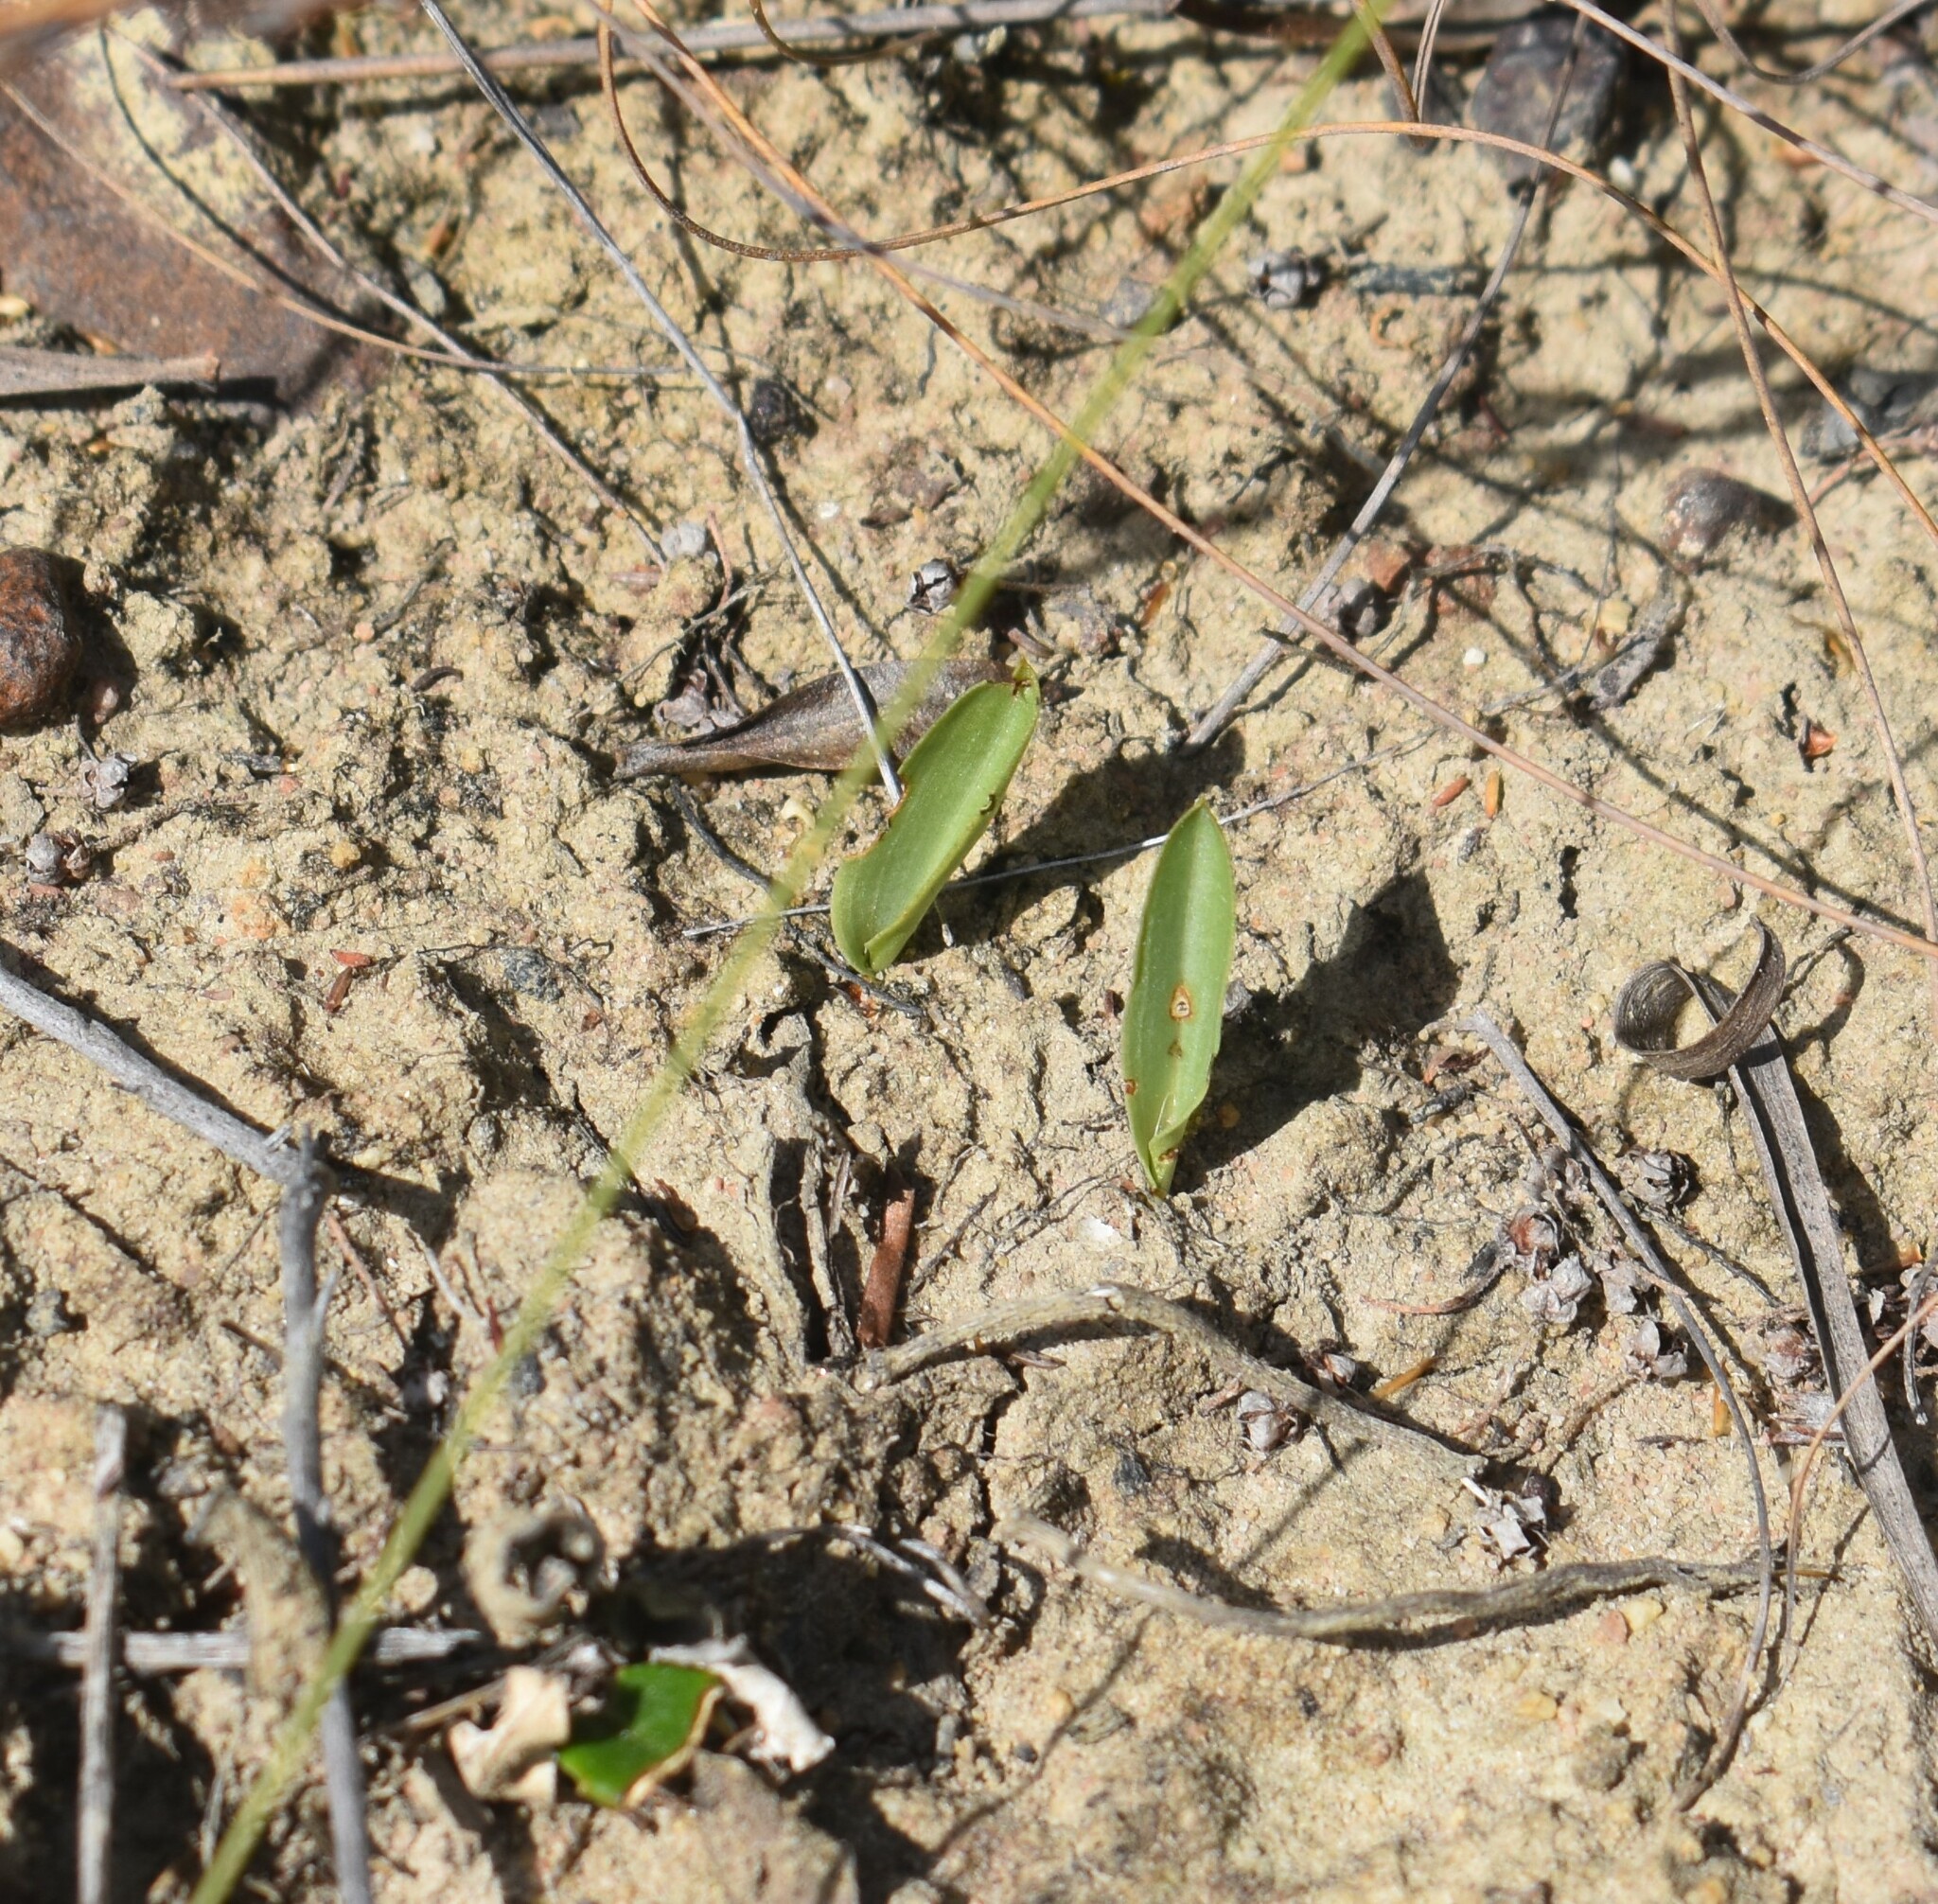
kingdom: Plantae
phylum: Tracheophyta
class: Liliopsida
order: Asparagales
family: Orchidaceae
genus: Disperis
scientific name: Disperis capensis
